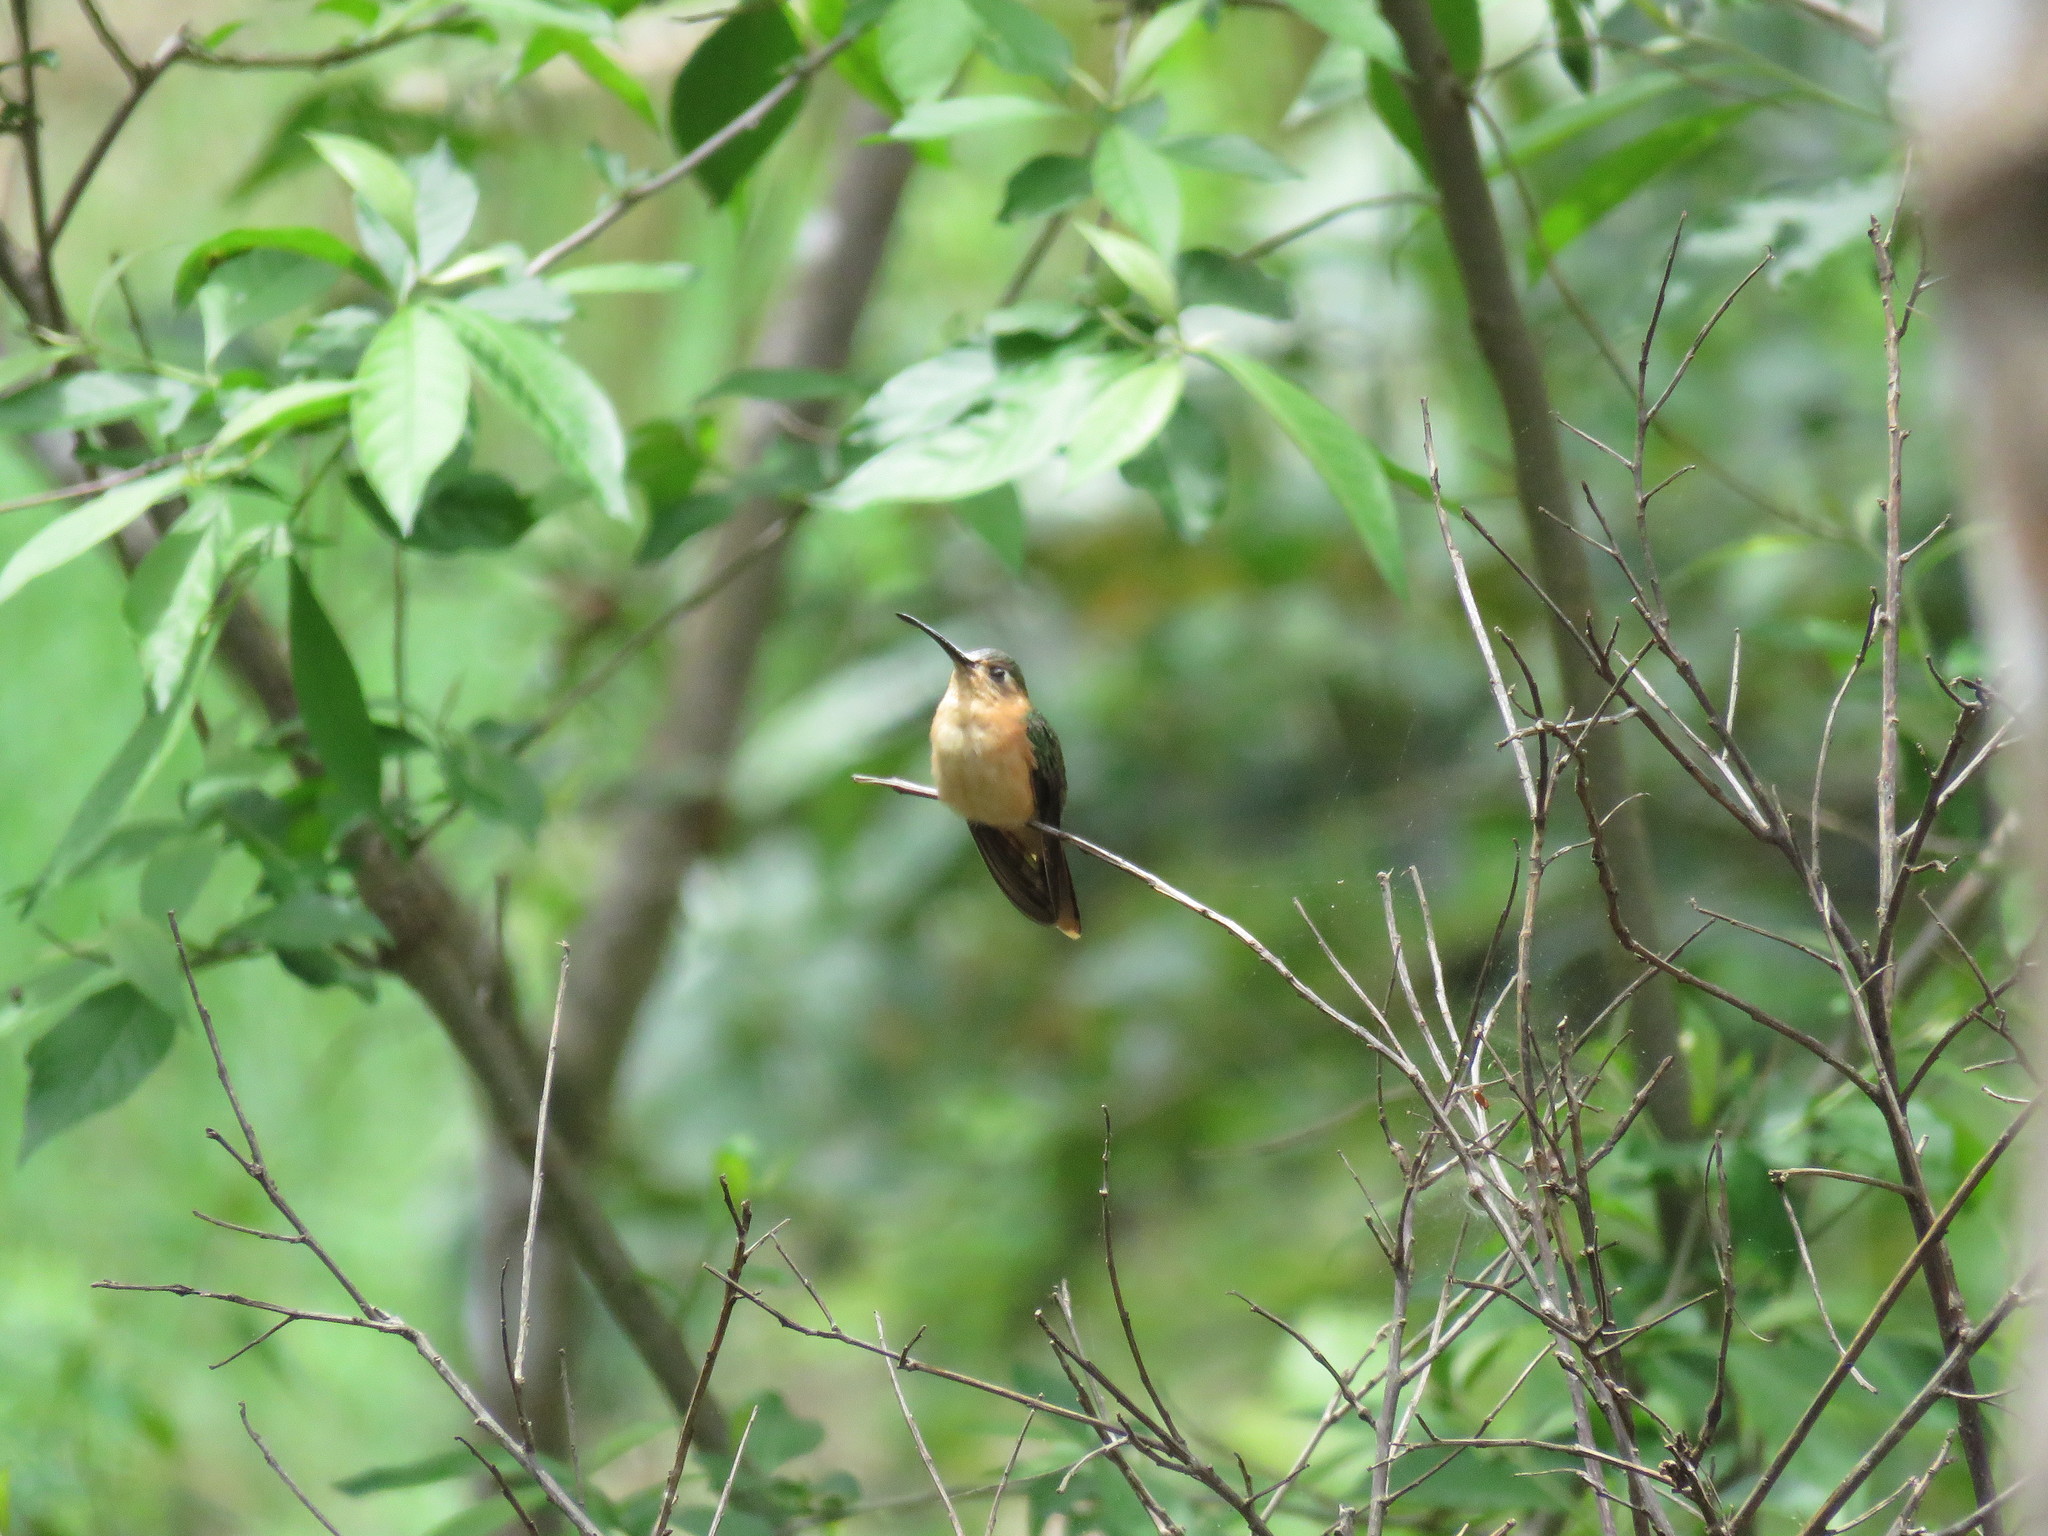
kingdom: Animalia
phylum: Chordata
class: Aves
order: Apodiformes
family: Trochilidae
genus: Pampa
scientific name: Pampa rufa
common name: Rufous sabrewing
